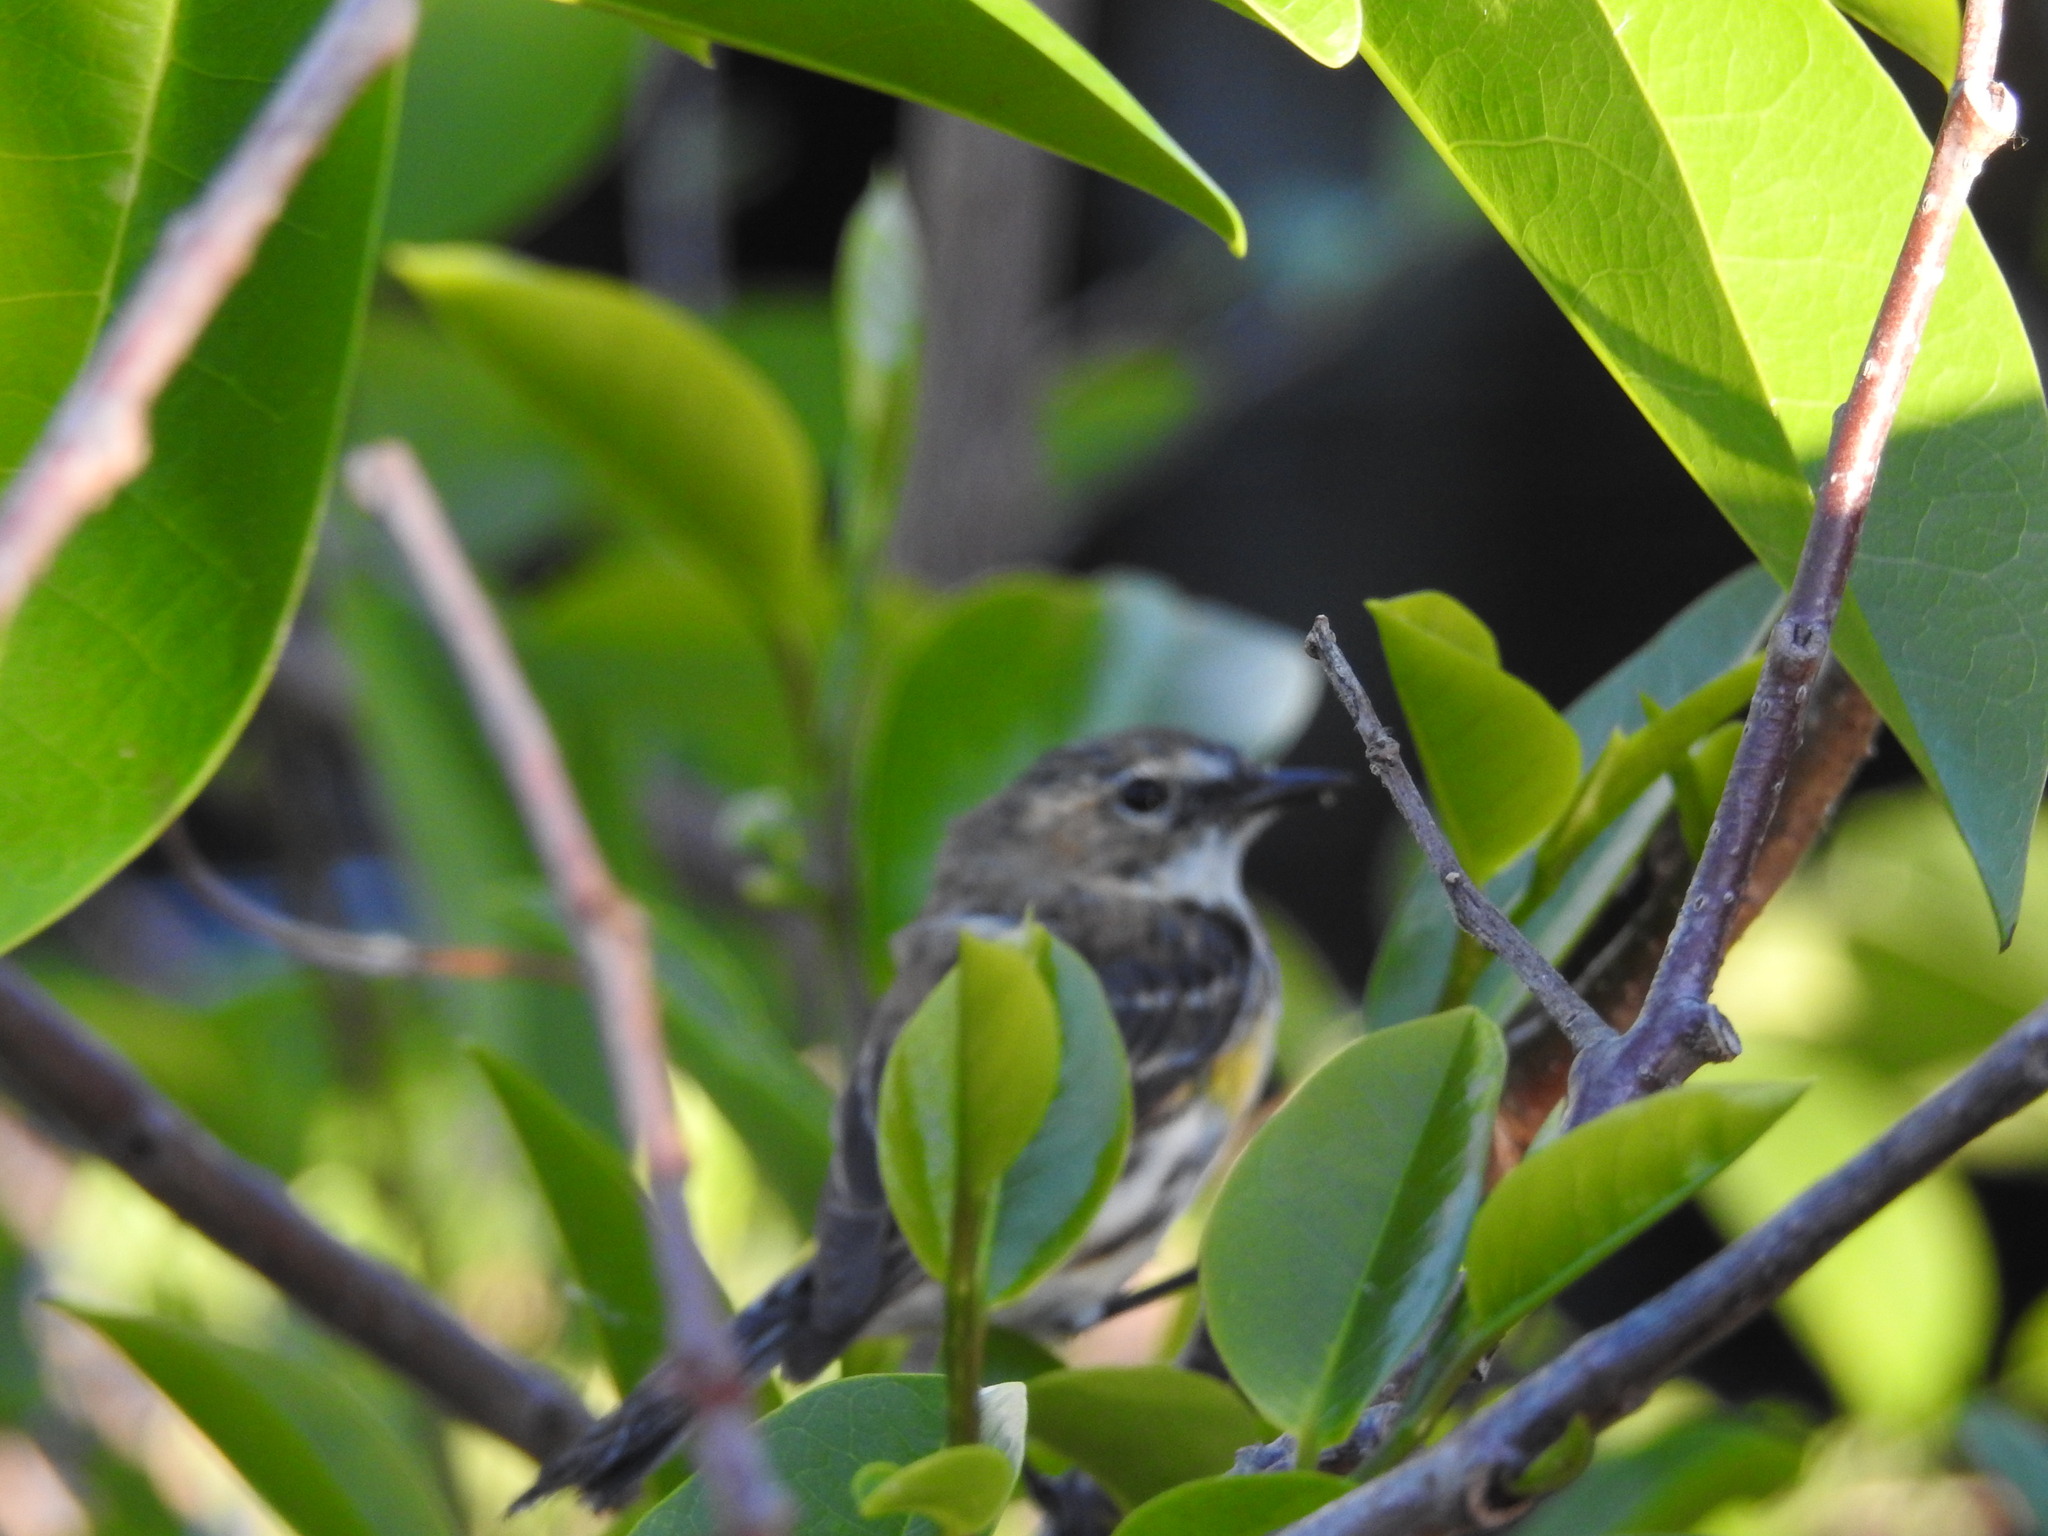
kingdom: Animalia
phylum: Chordata
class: Aves
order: Passeriformes
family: Parulidae
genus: Setophaga
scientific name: Setophaga coronata
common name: Myrtle warbler
